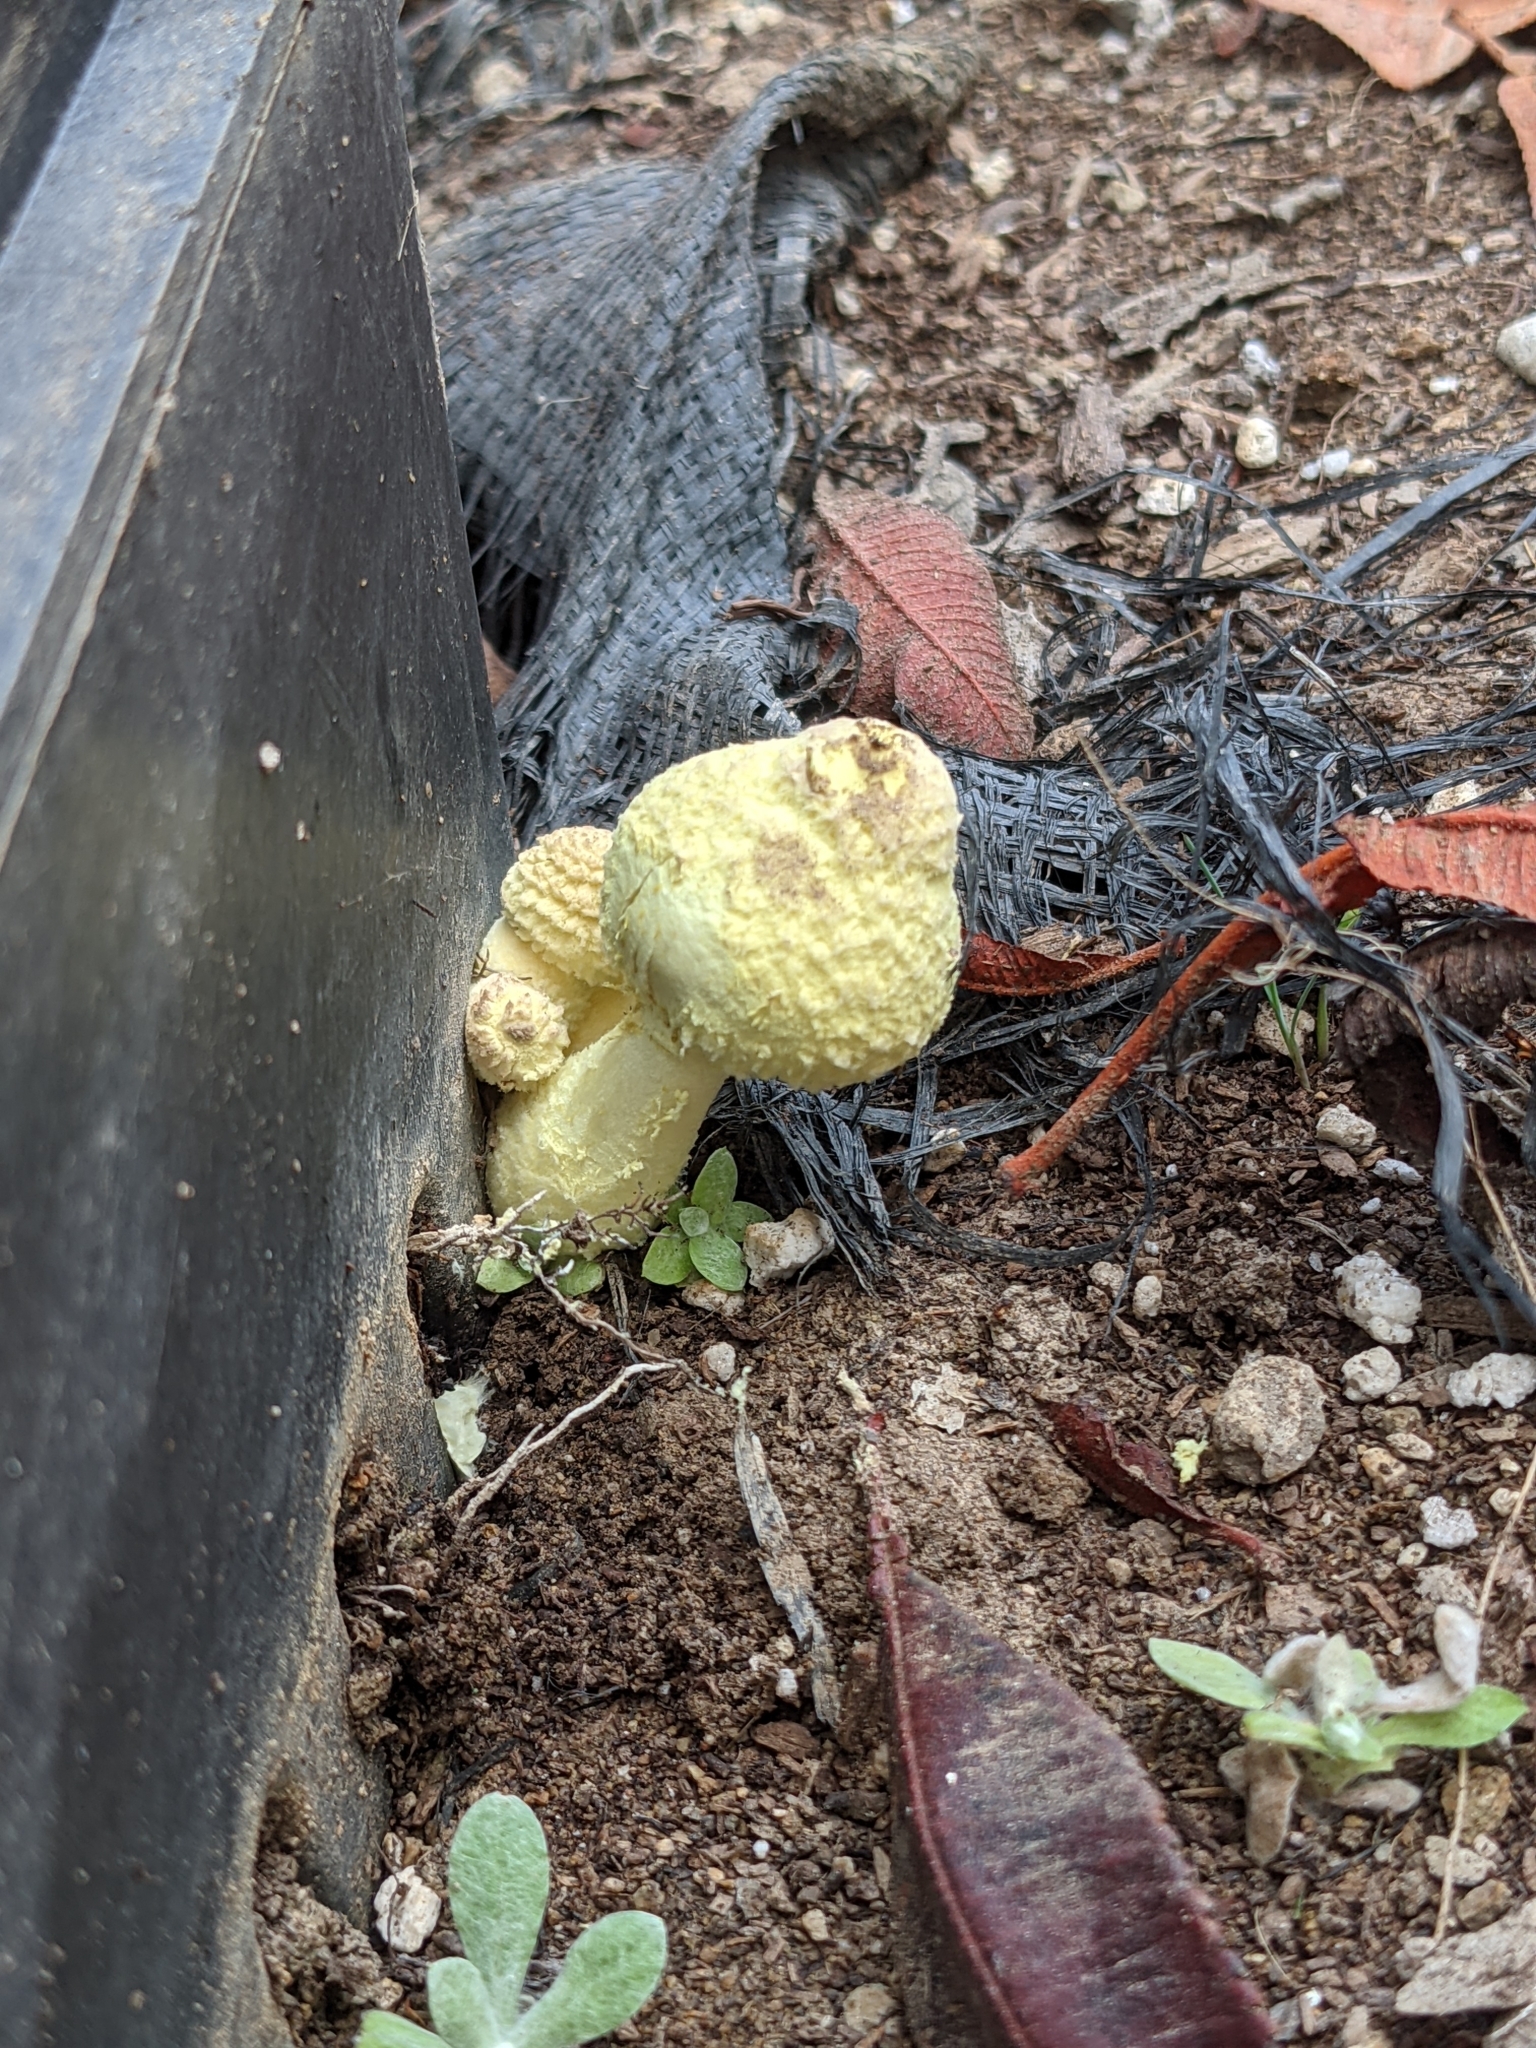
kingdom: Fungi
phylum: Basidiomycota
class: Agaricomycetes
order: Agaricales
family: Agaricaceae
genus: Leucocoprinus
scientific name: Leucocoprinus birnbaumii
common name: Plantpot dapperling
